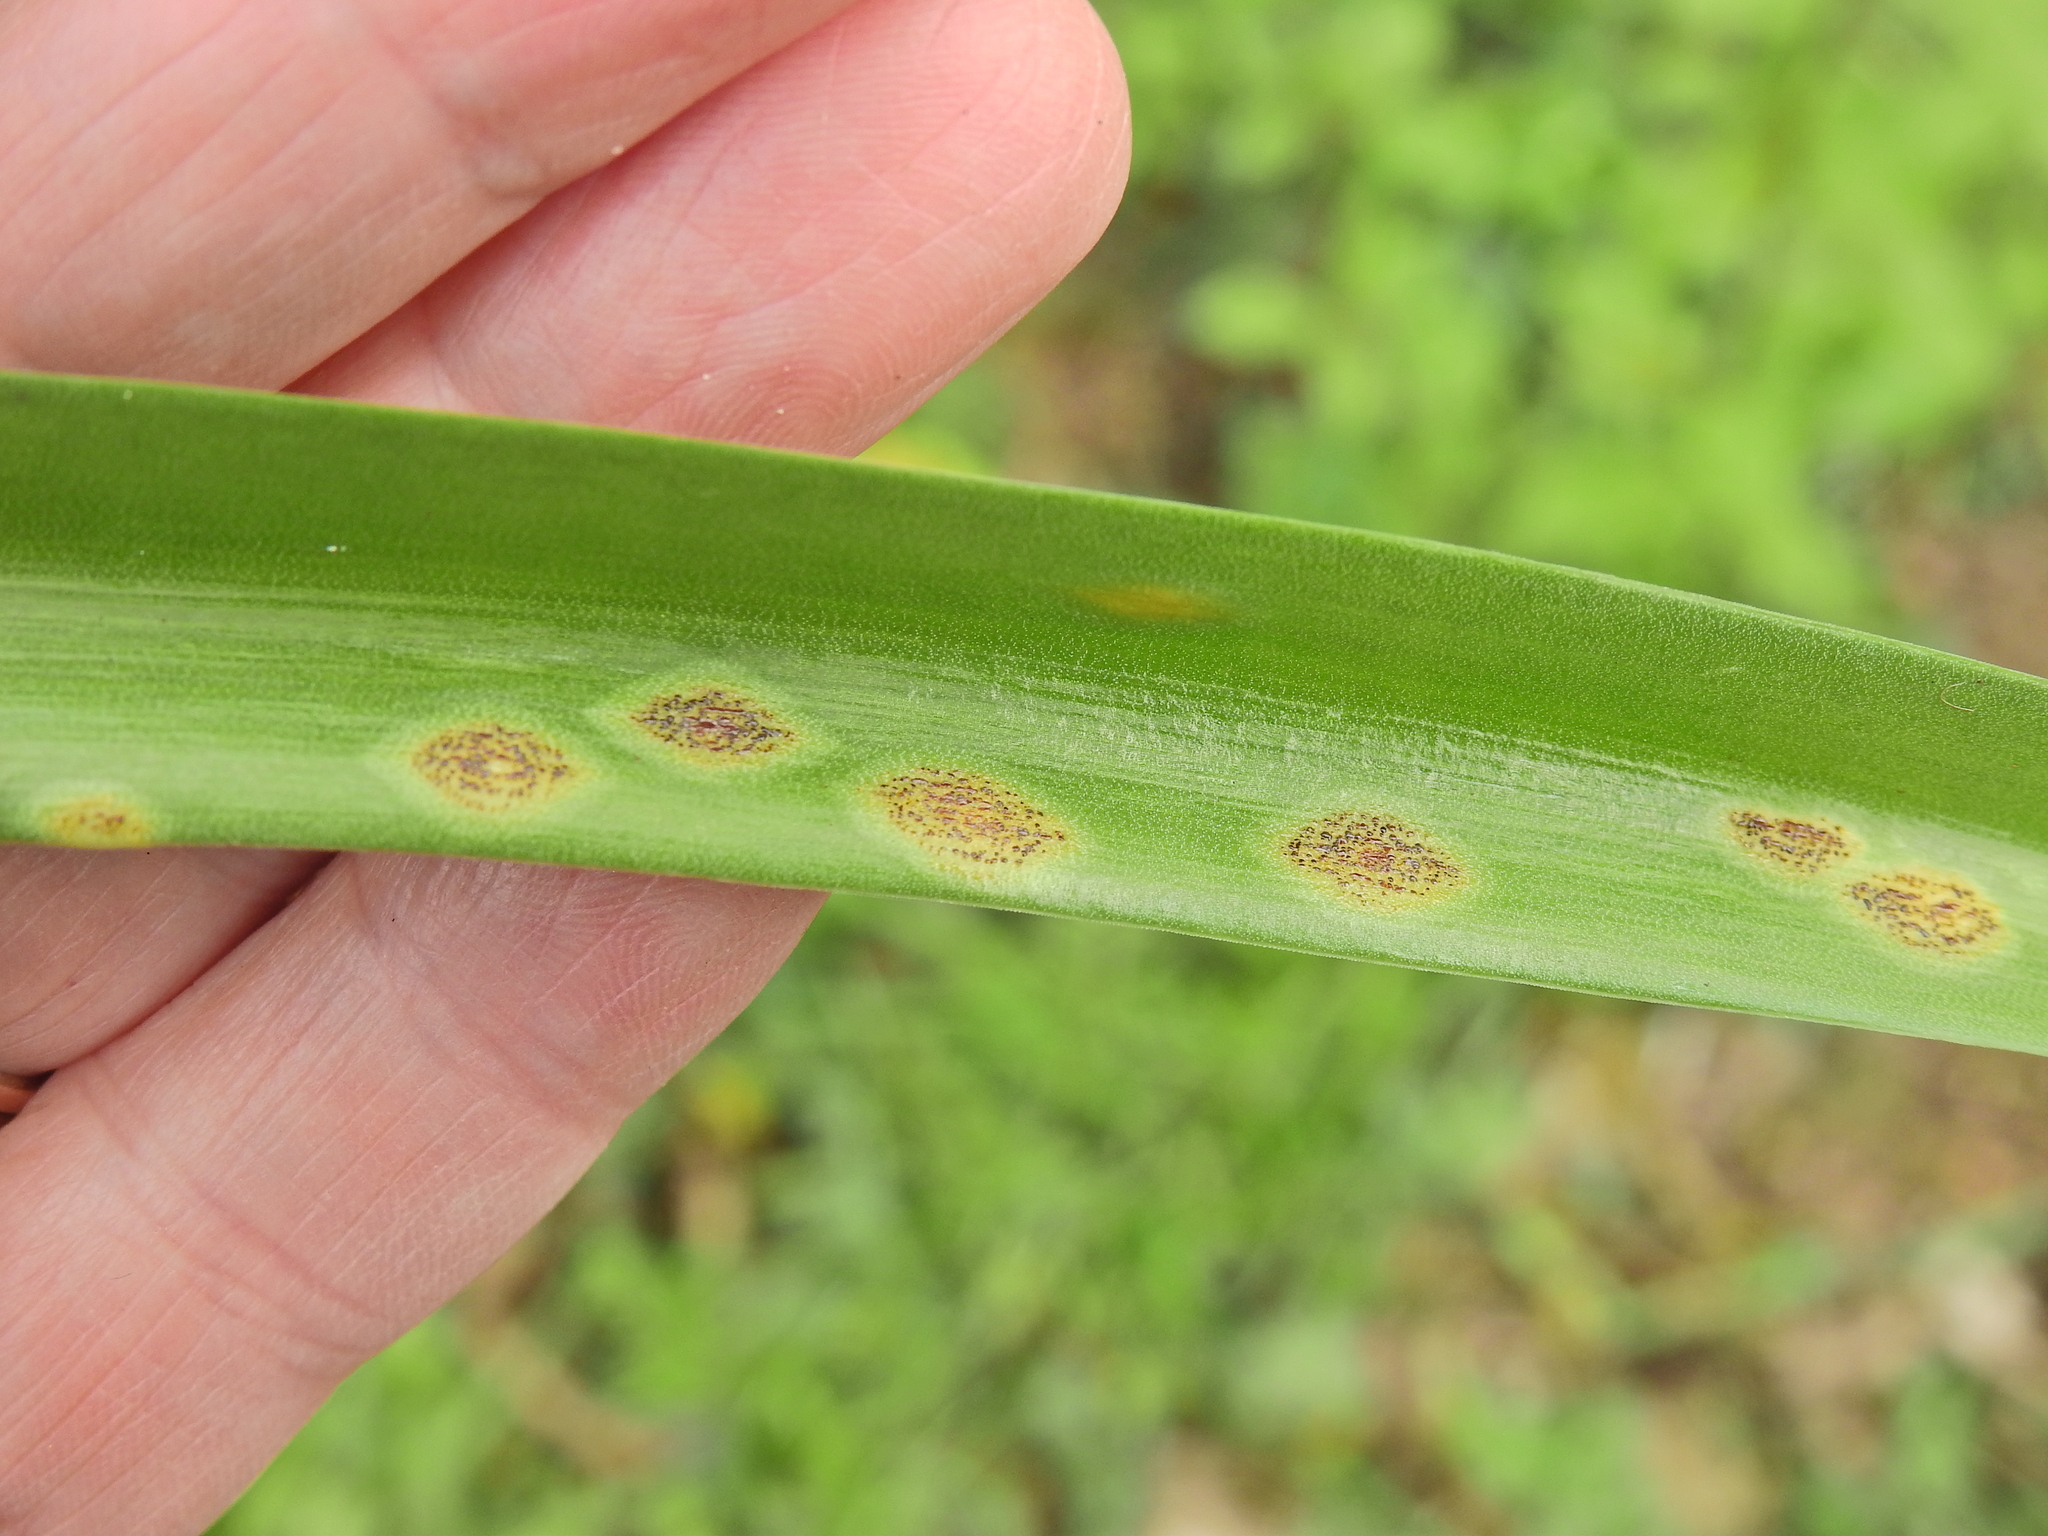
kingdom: Fungi
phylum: Basidiomycota
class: Pucciniomycetes
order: Pucciniales
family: Pucciniaceae
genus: Uromyces
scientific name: Uromyces hyacinthi
